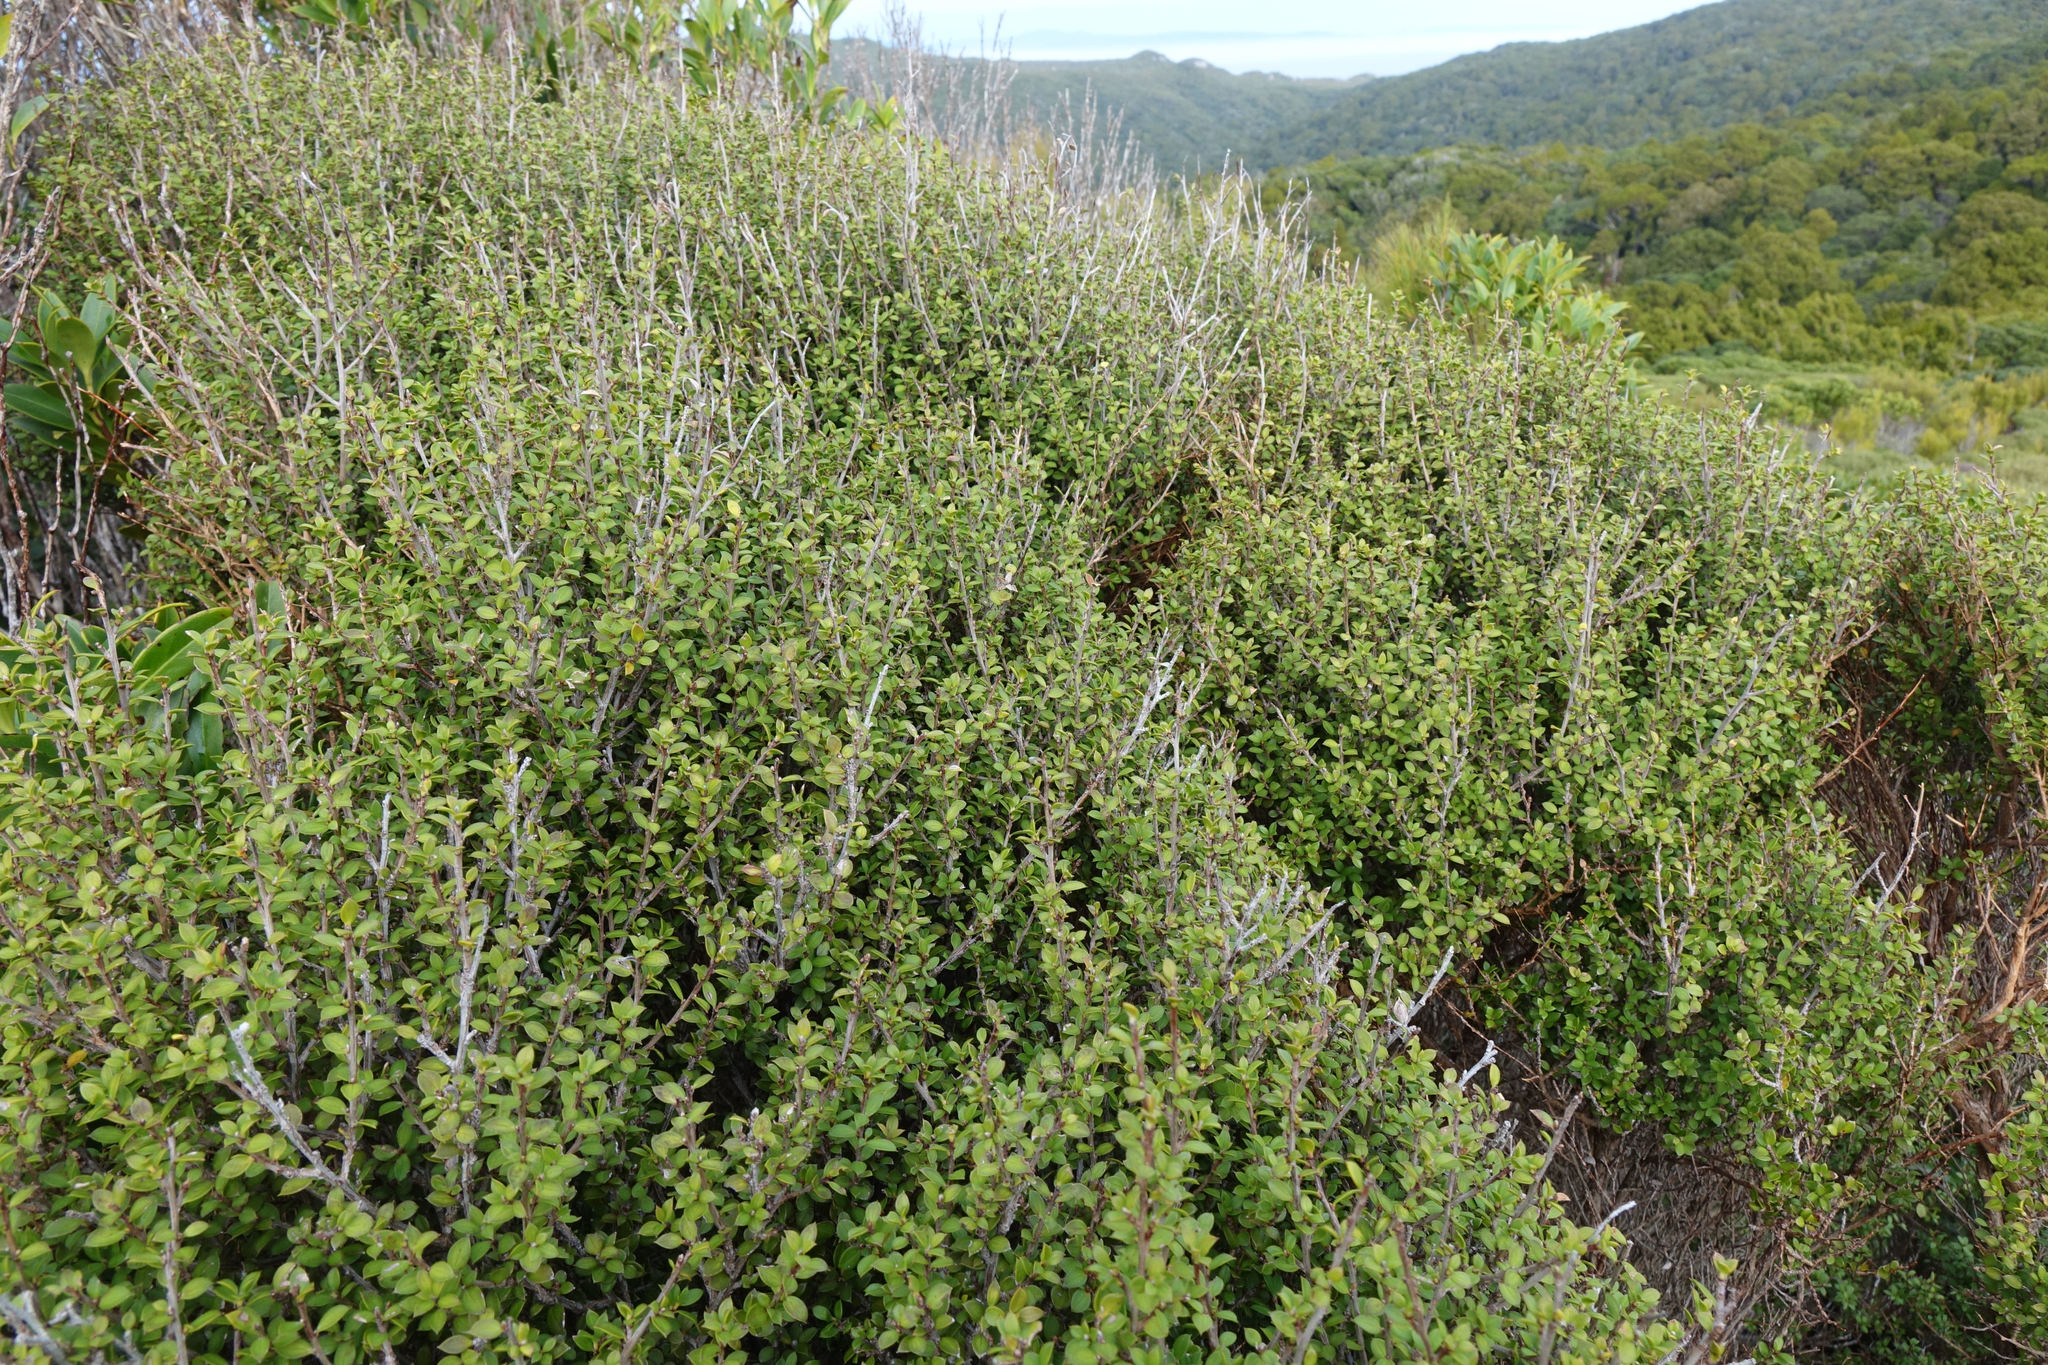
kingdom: Plantae
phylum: Tracheophyta
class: Magnoliopsida
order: Myrtales
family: Myrtaceae
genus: Leptospermum
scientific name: Leptospermum scoparium
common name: Broom tea-tree
